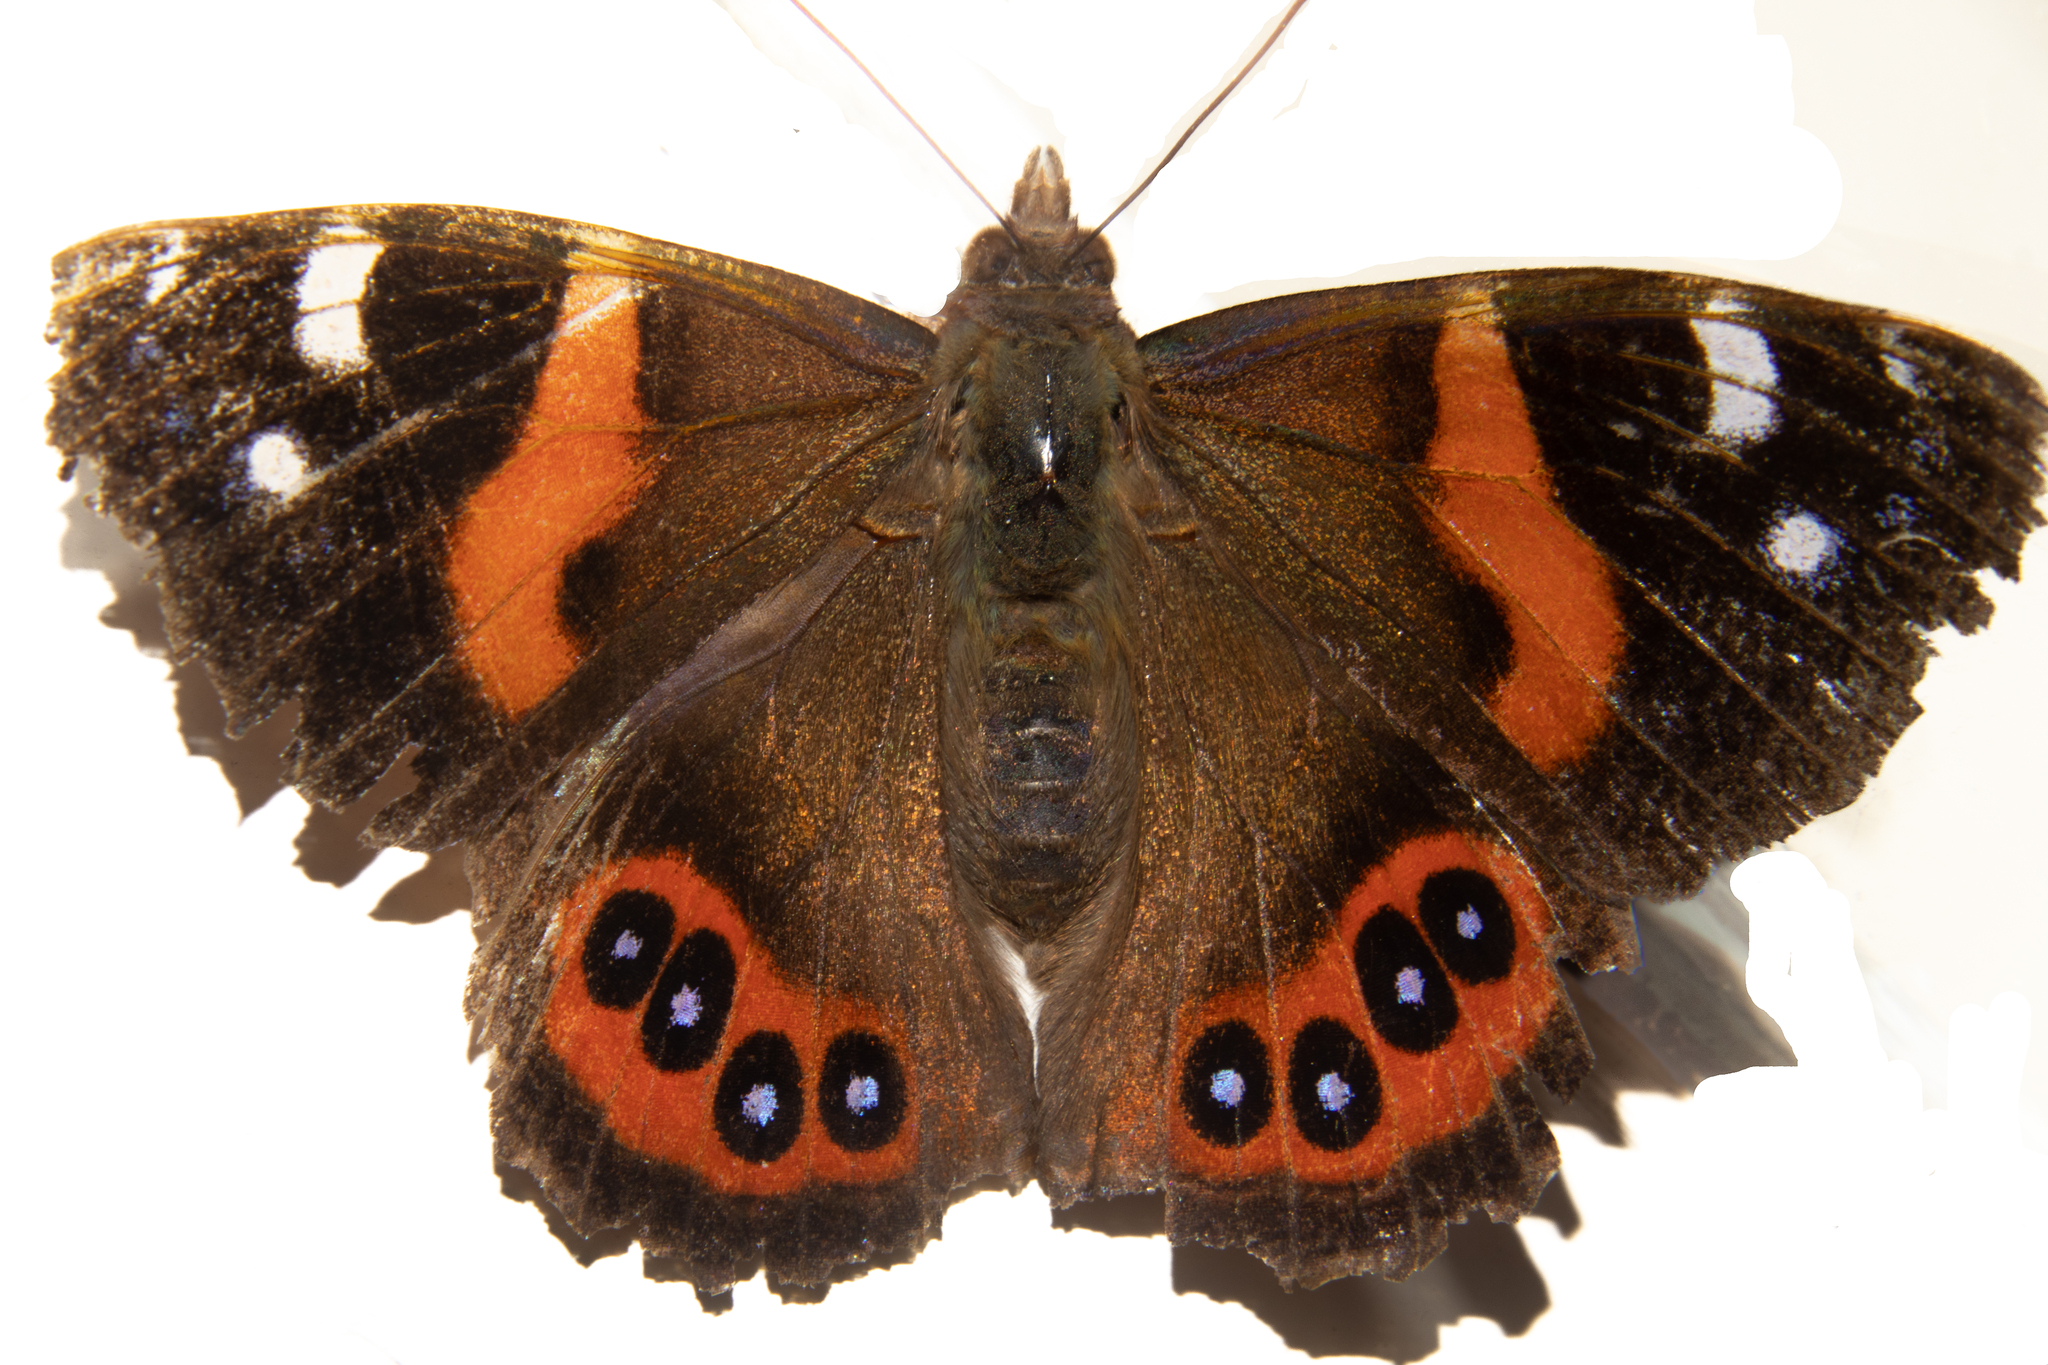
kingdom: Animalia
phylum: Arthropoda
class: Insecta
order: Lepidoptera
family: Nymphalidae
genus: Vanessa
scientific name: Vanessa gonerilla
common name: New zealand red admiral
